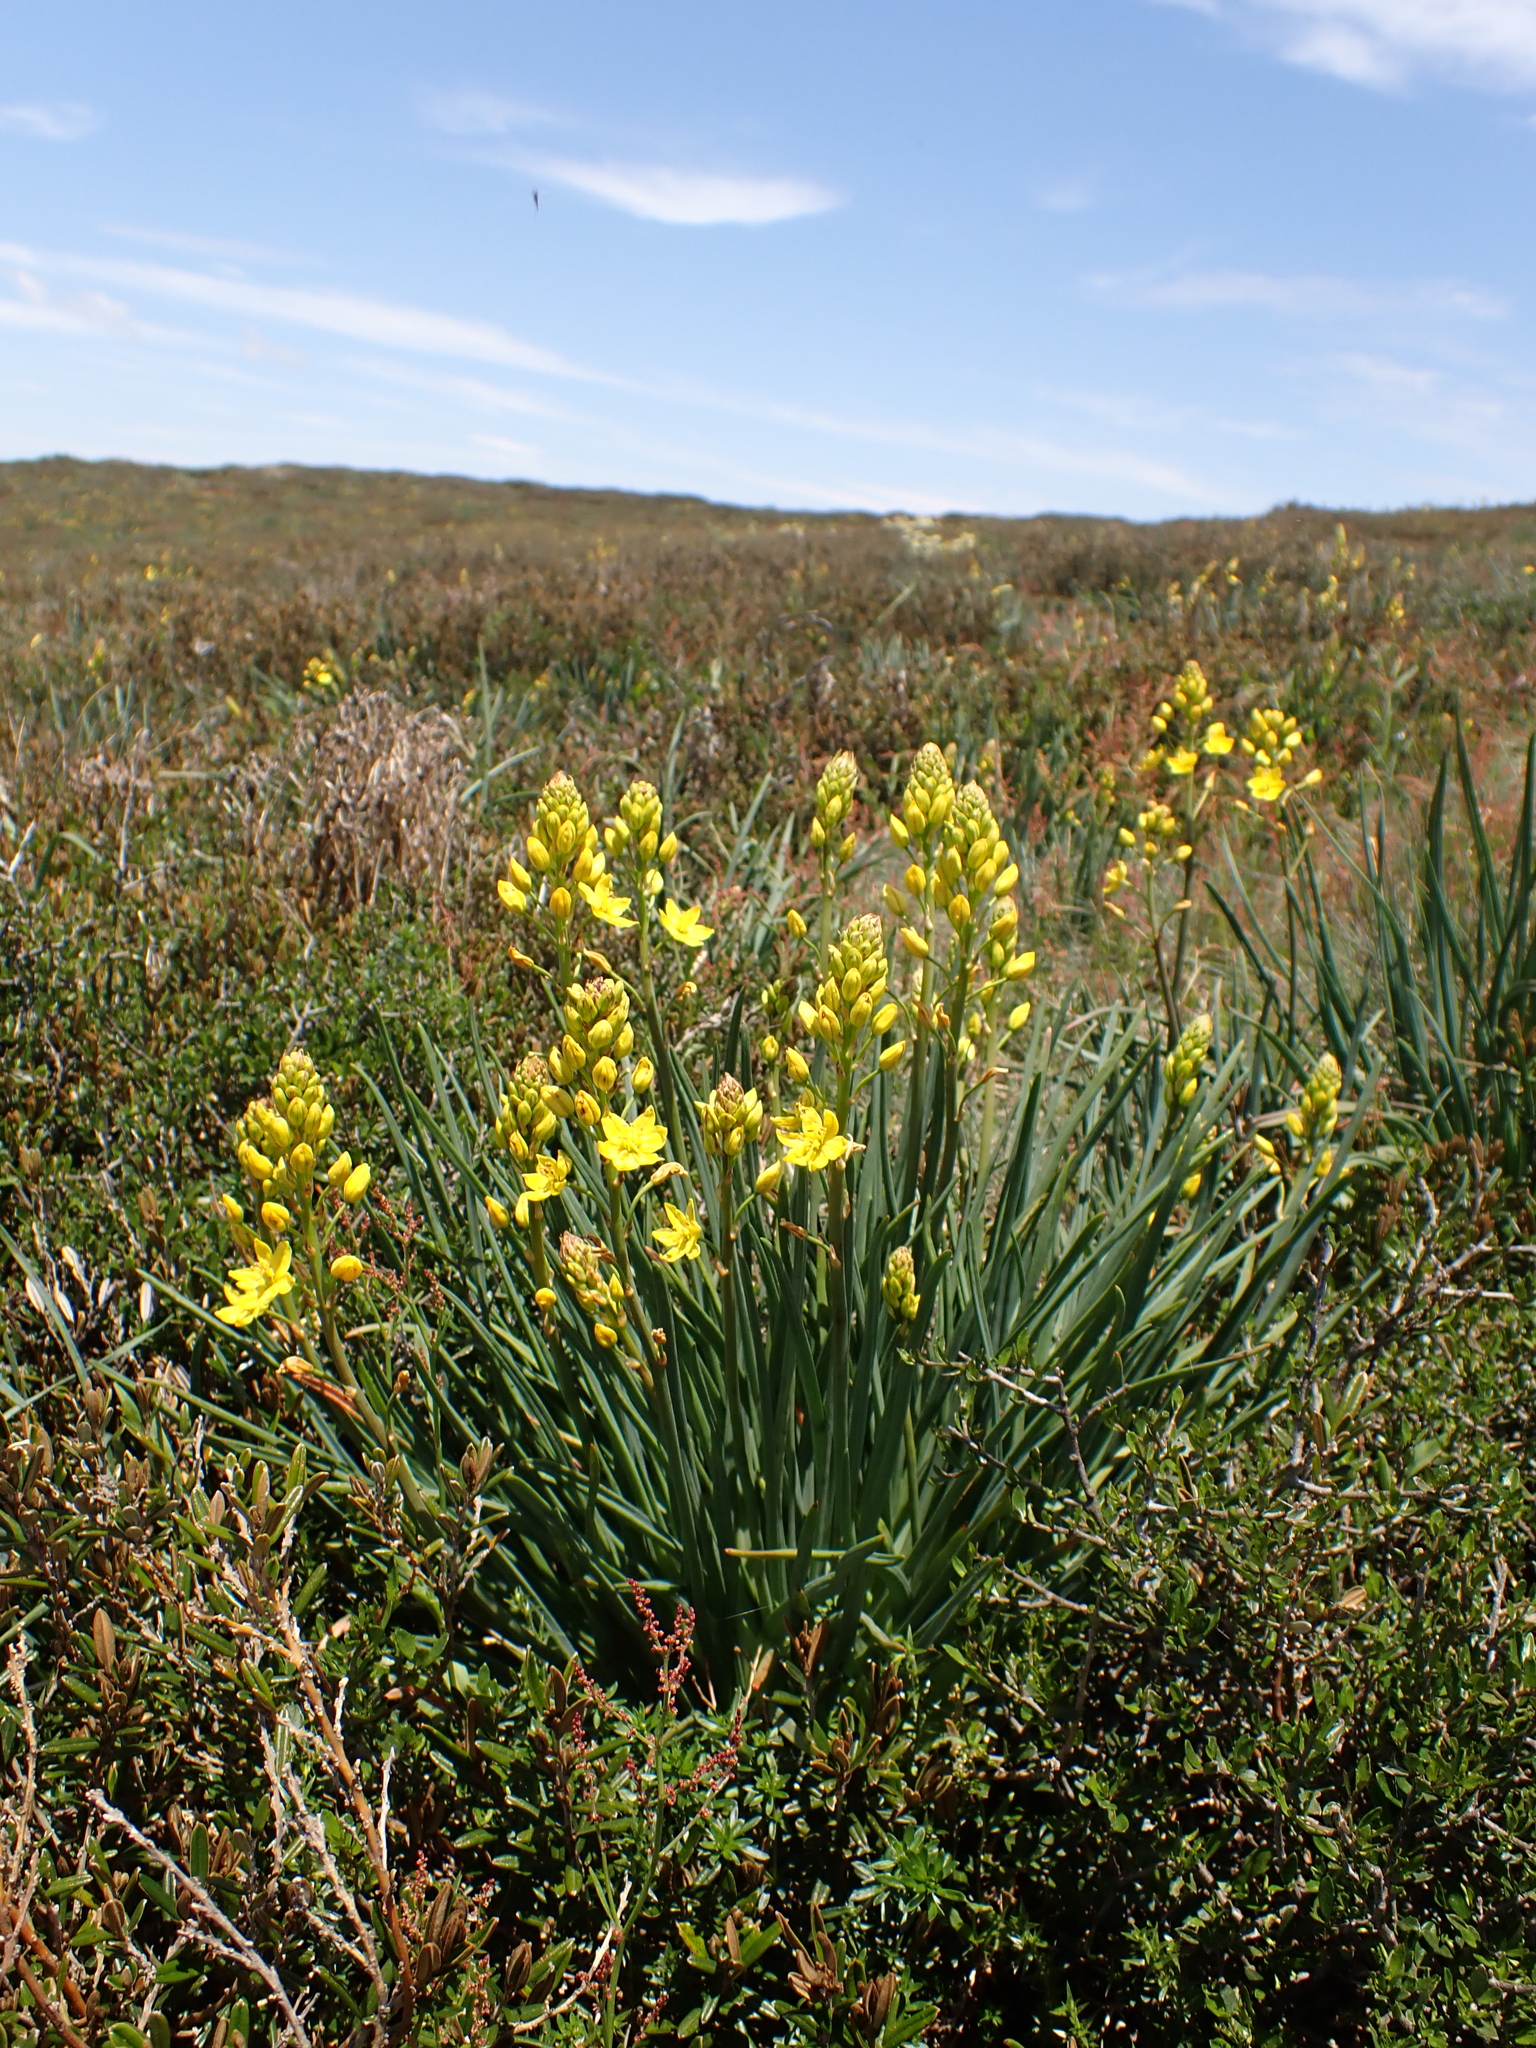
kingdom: Plantae
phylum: Tracheophyta
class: Liliopsida
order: Asparagales
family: Asphodelaceae
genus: Bulbine
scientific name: Bulbine glauca
